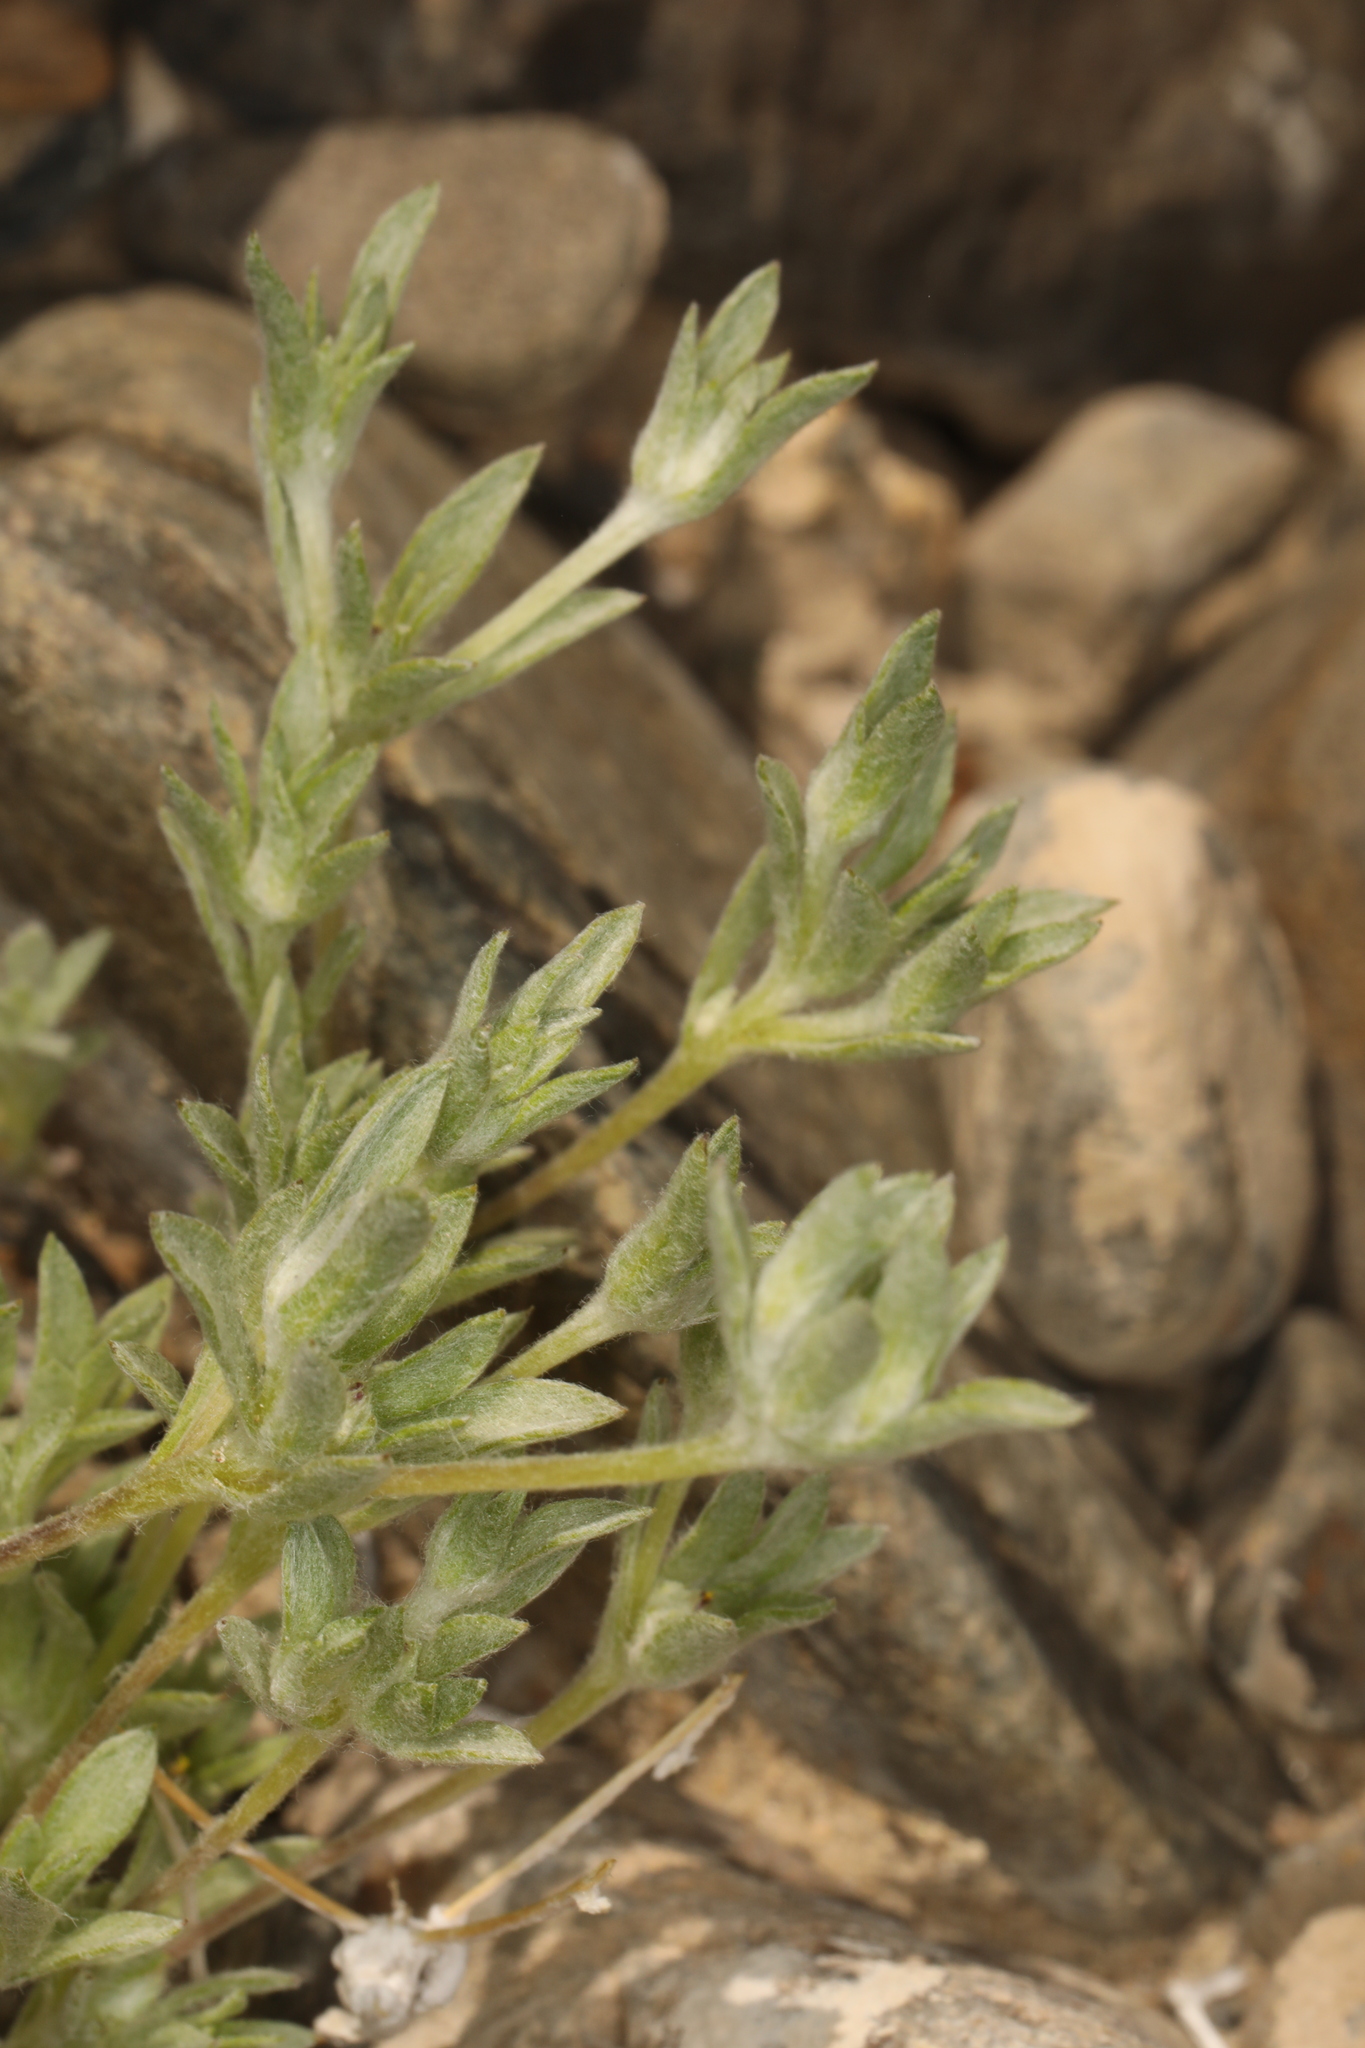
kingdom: Plantae
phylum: Tracheophyta
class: Magnoliopsida
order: Asterales
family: Asteraceae
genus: Stylocline
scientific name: Stylocline psilocarphoides
